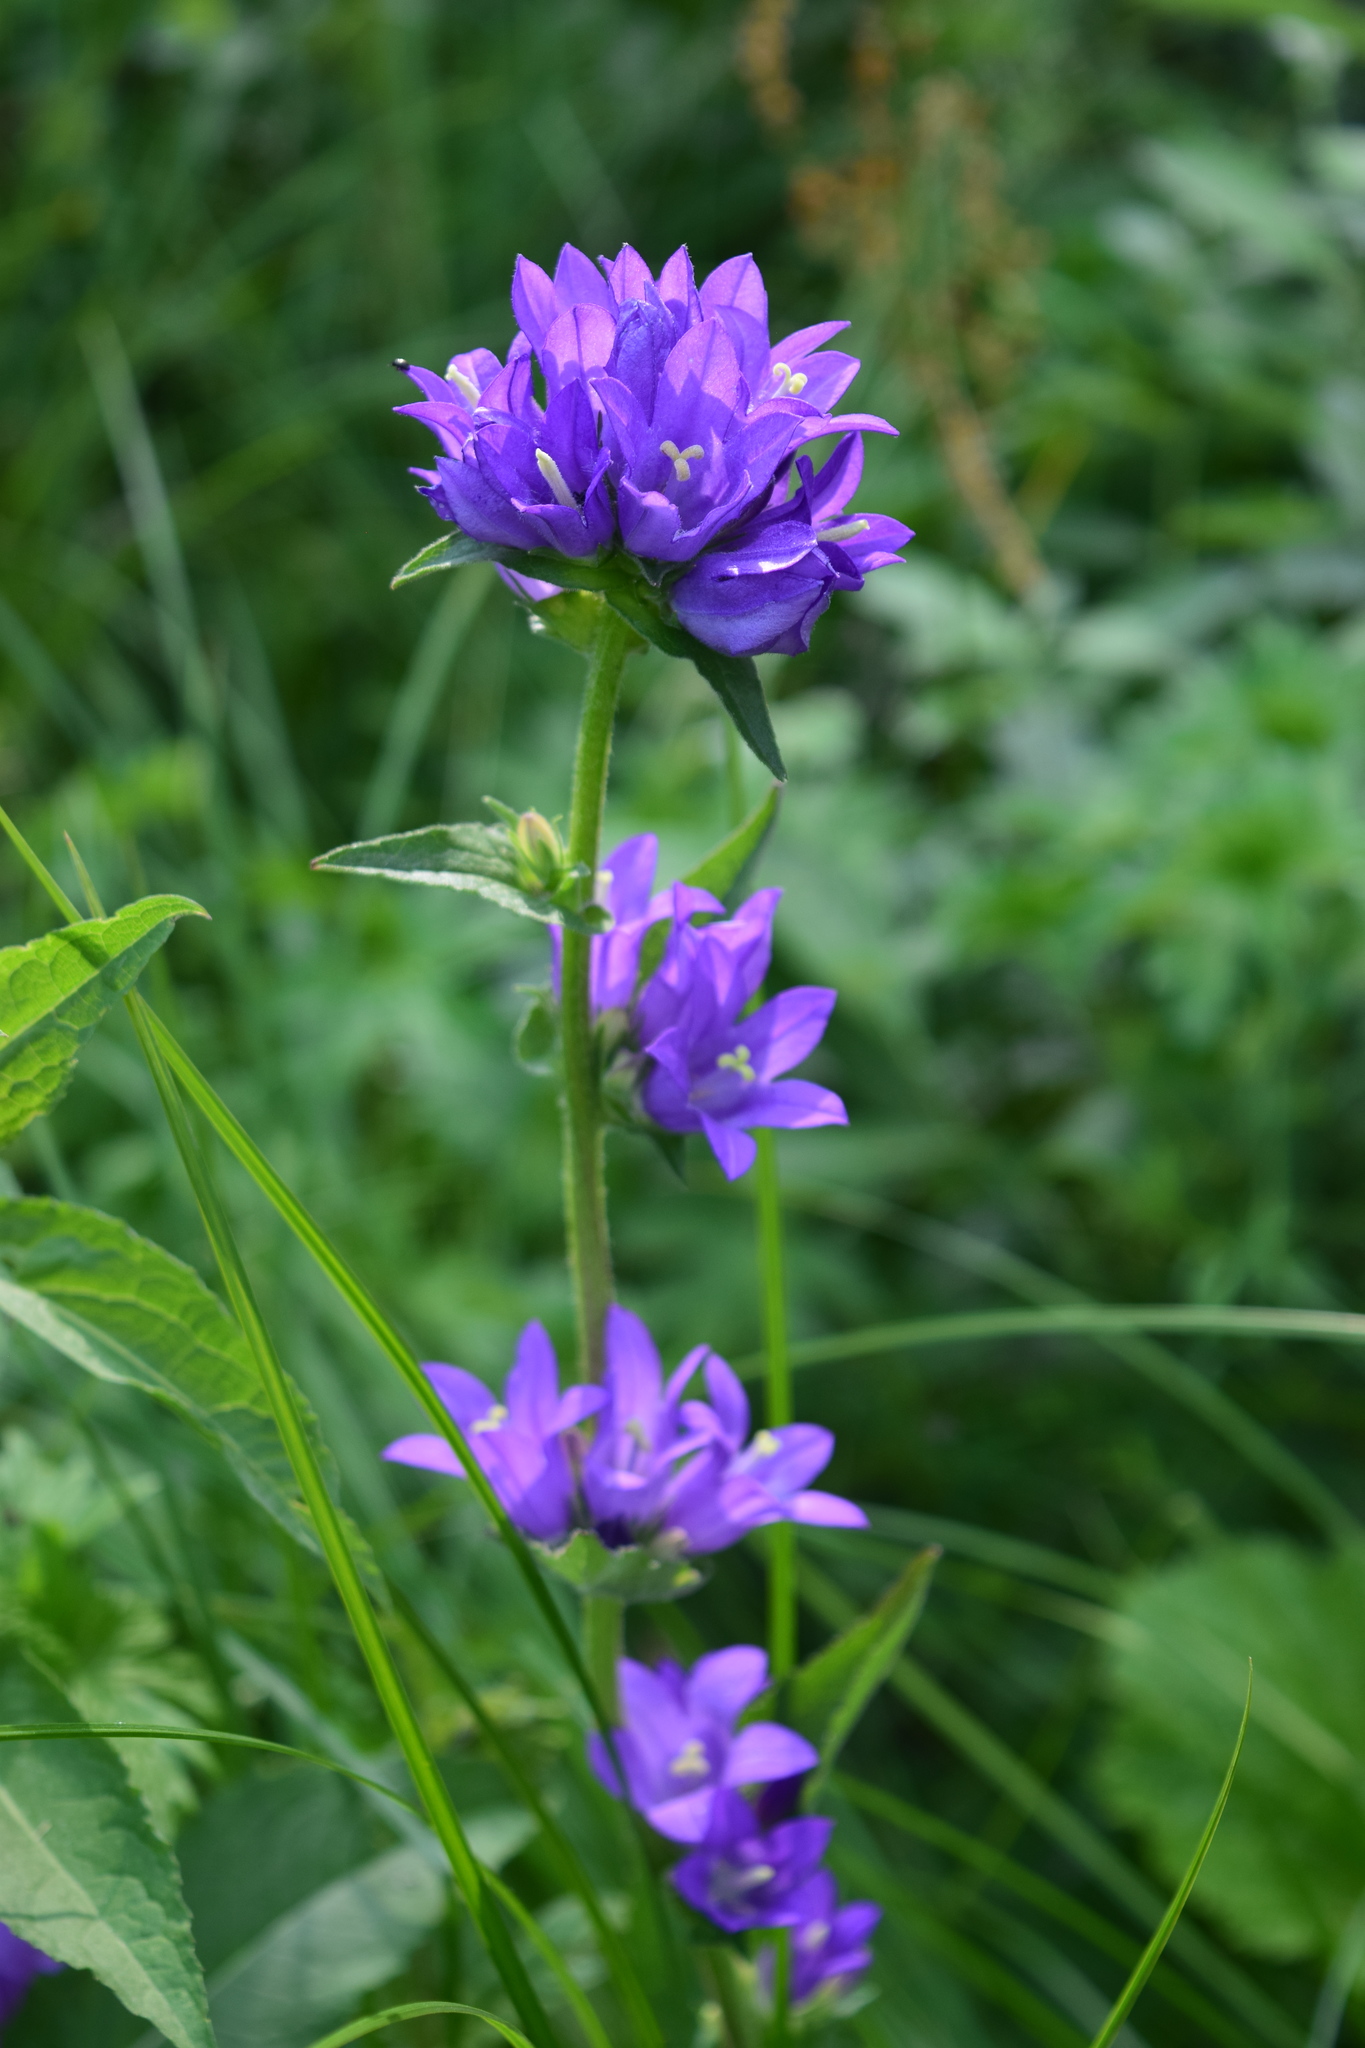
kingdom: Plantae
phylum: Tracheophyta
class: Magnoliopsida
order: Asterales
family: Campanulaceae
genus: Campanula
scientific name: Campanula glomerata
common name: Clustered bellflower
